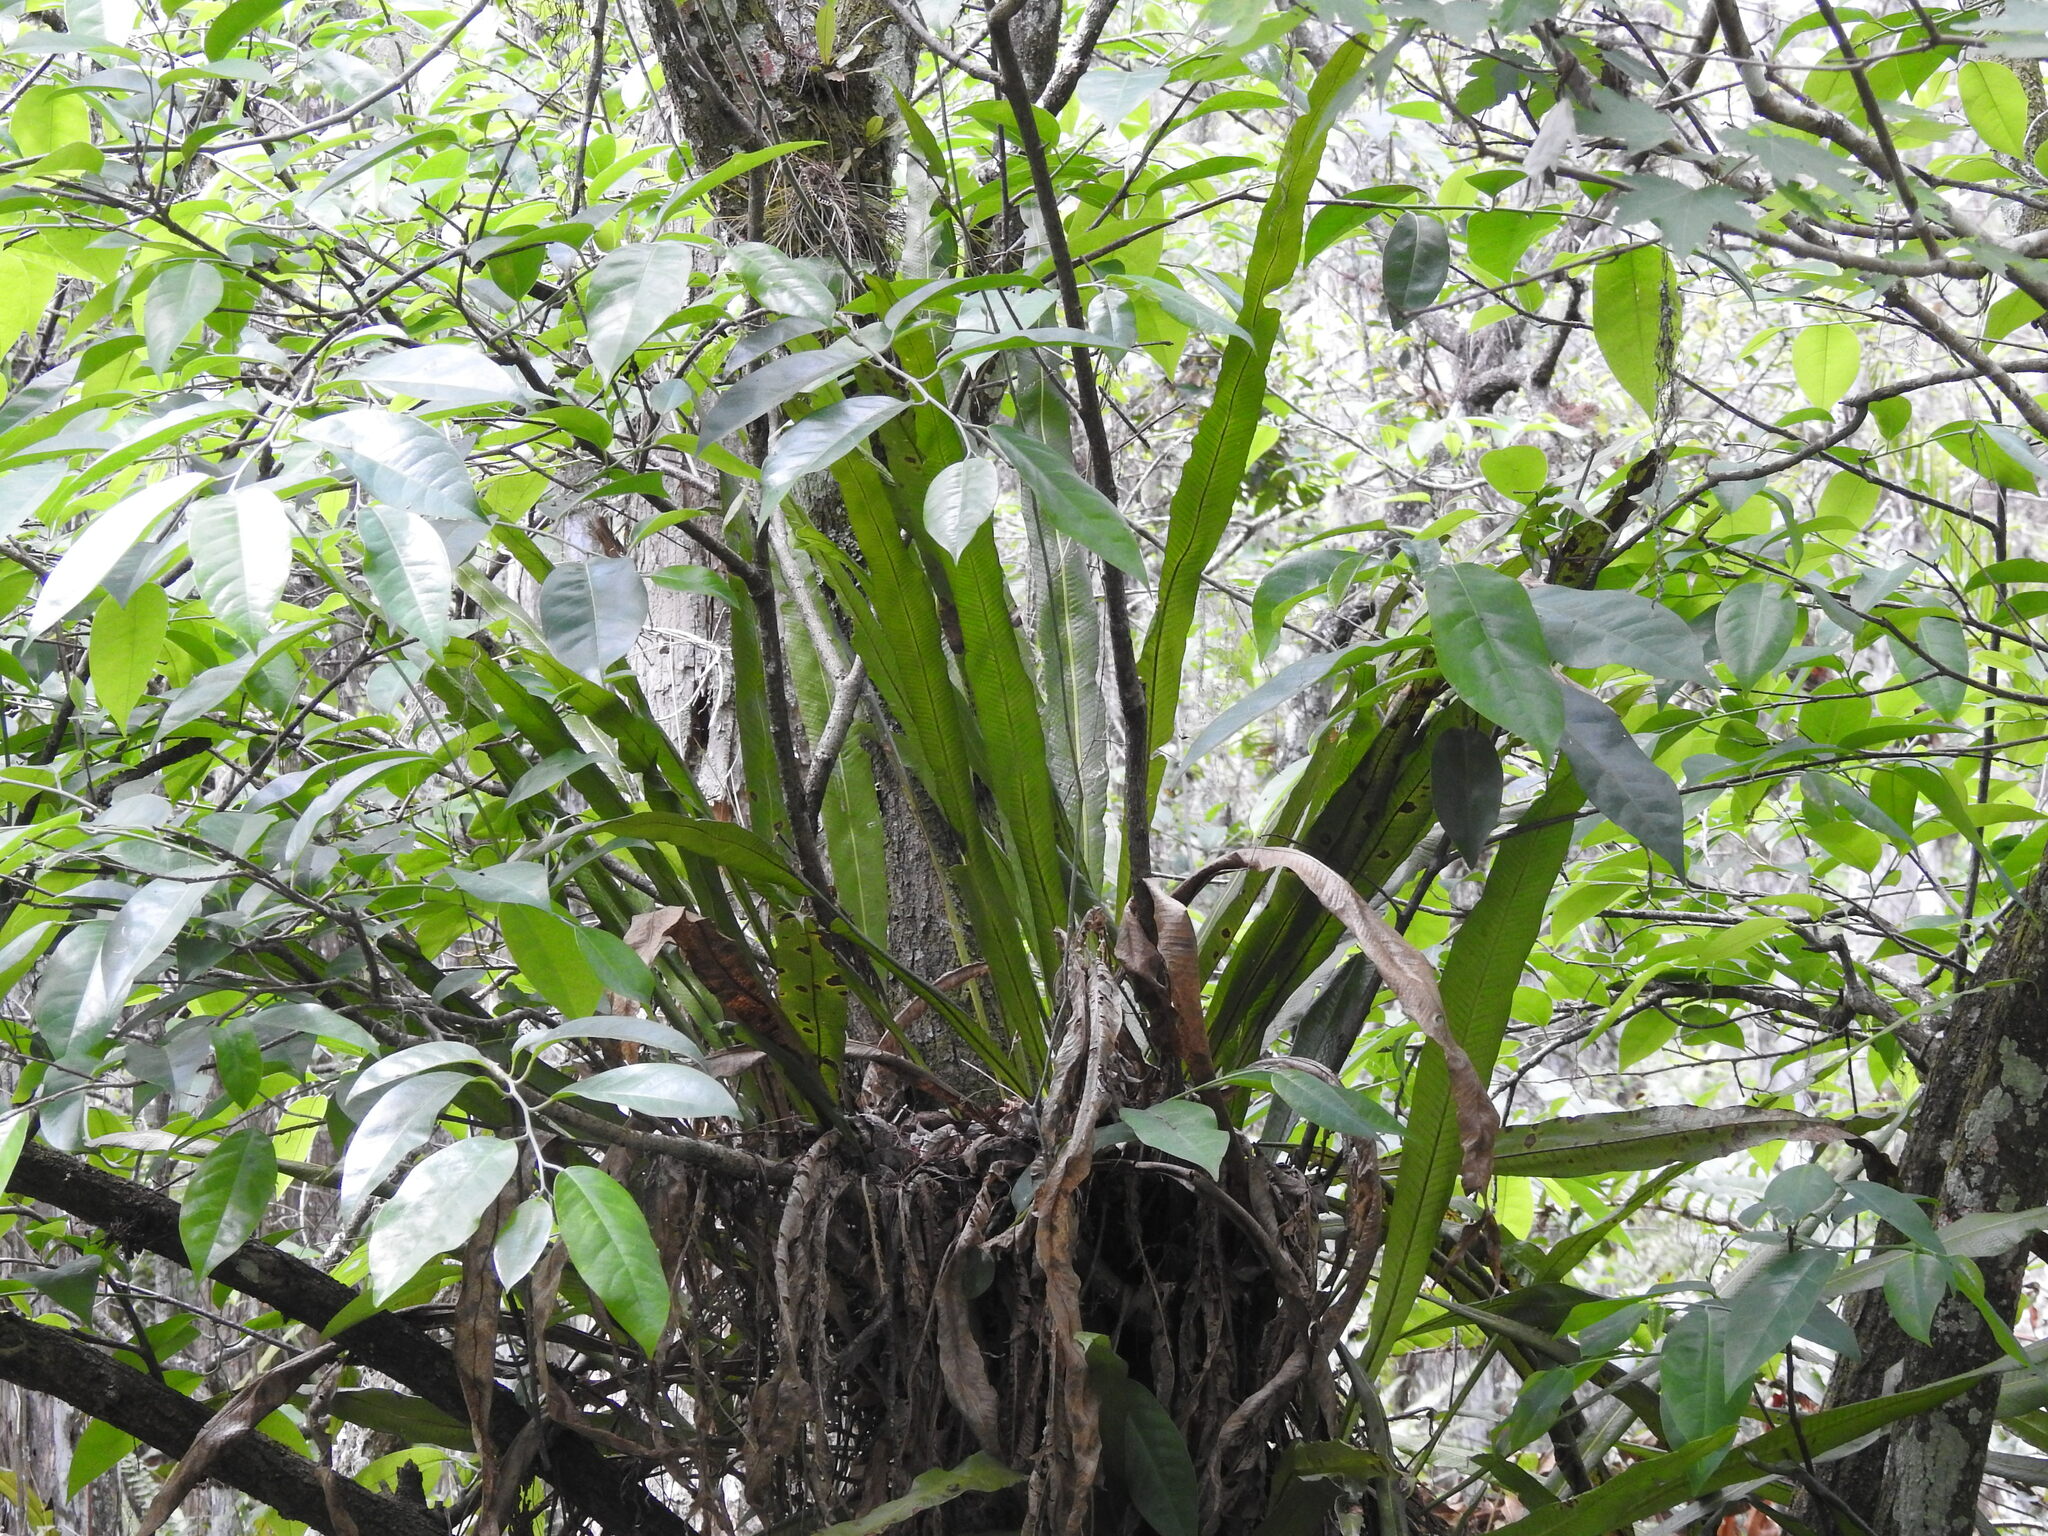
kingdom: Plantae
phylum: Tracheophyta
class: Polypodiopsida
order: Polypodiales
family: Polypodiaceae
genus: Campyloneurum
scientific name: Campyloneurum phyllitidis
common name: Cow-tongue fern
